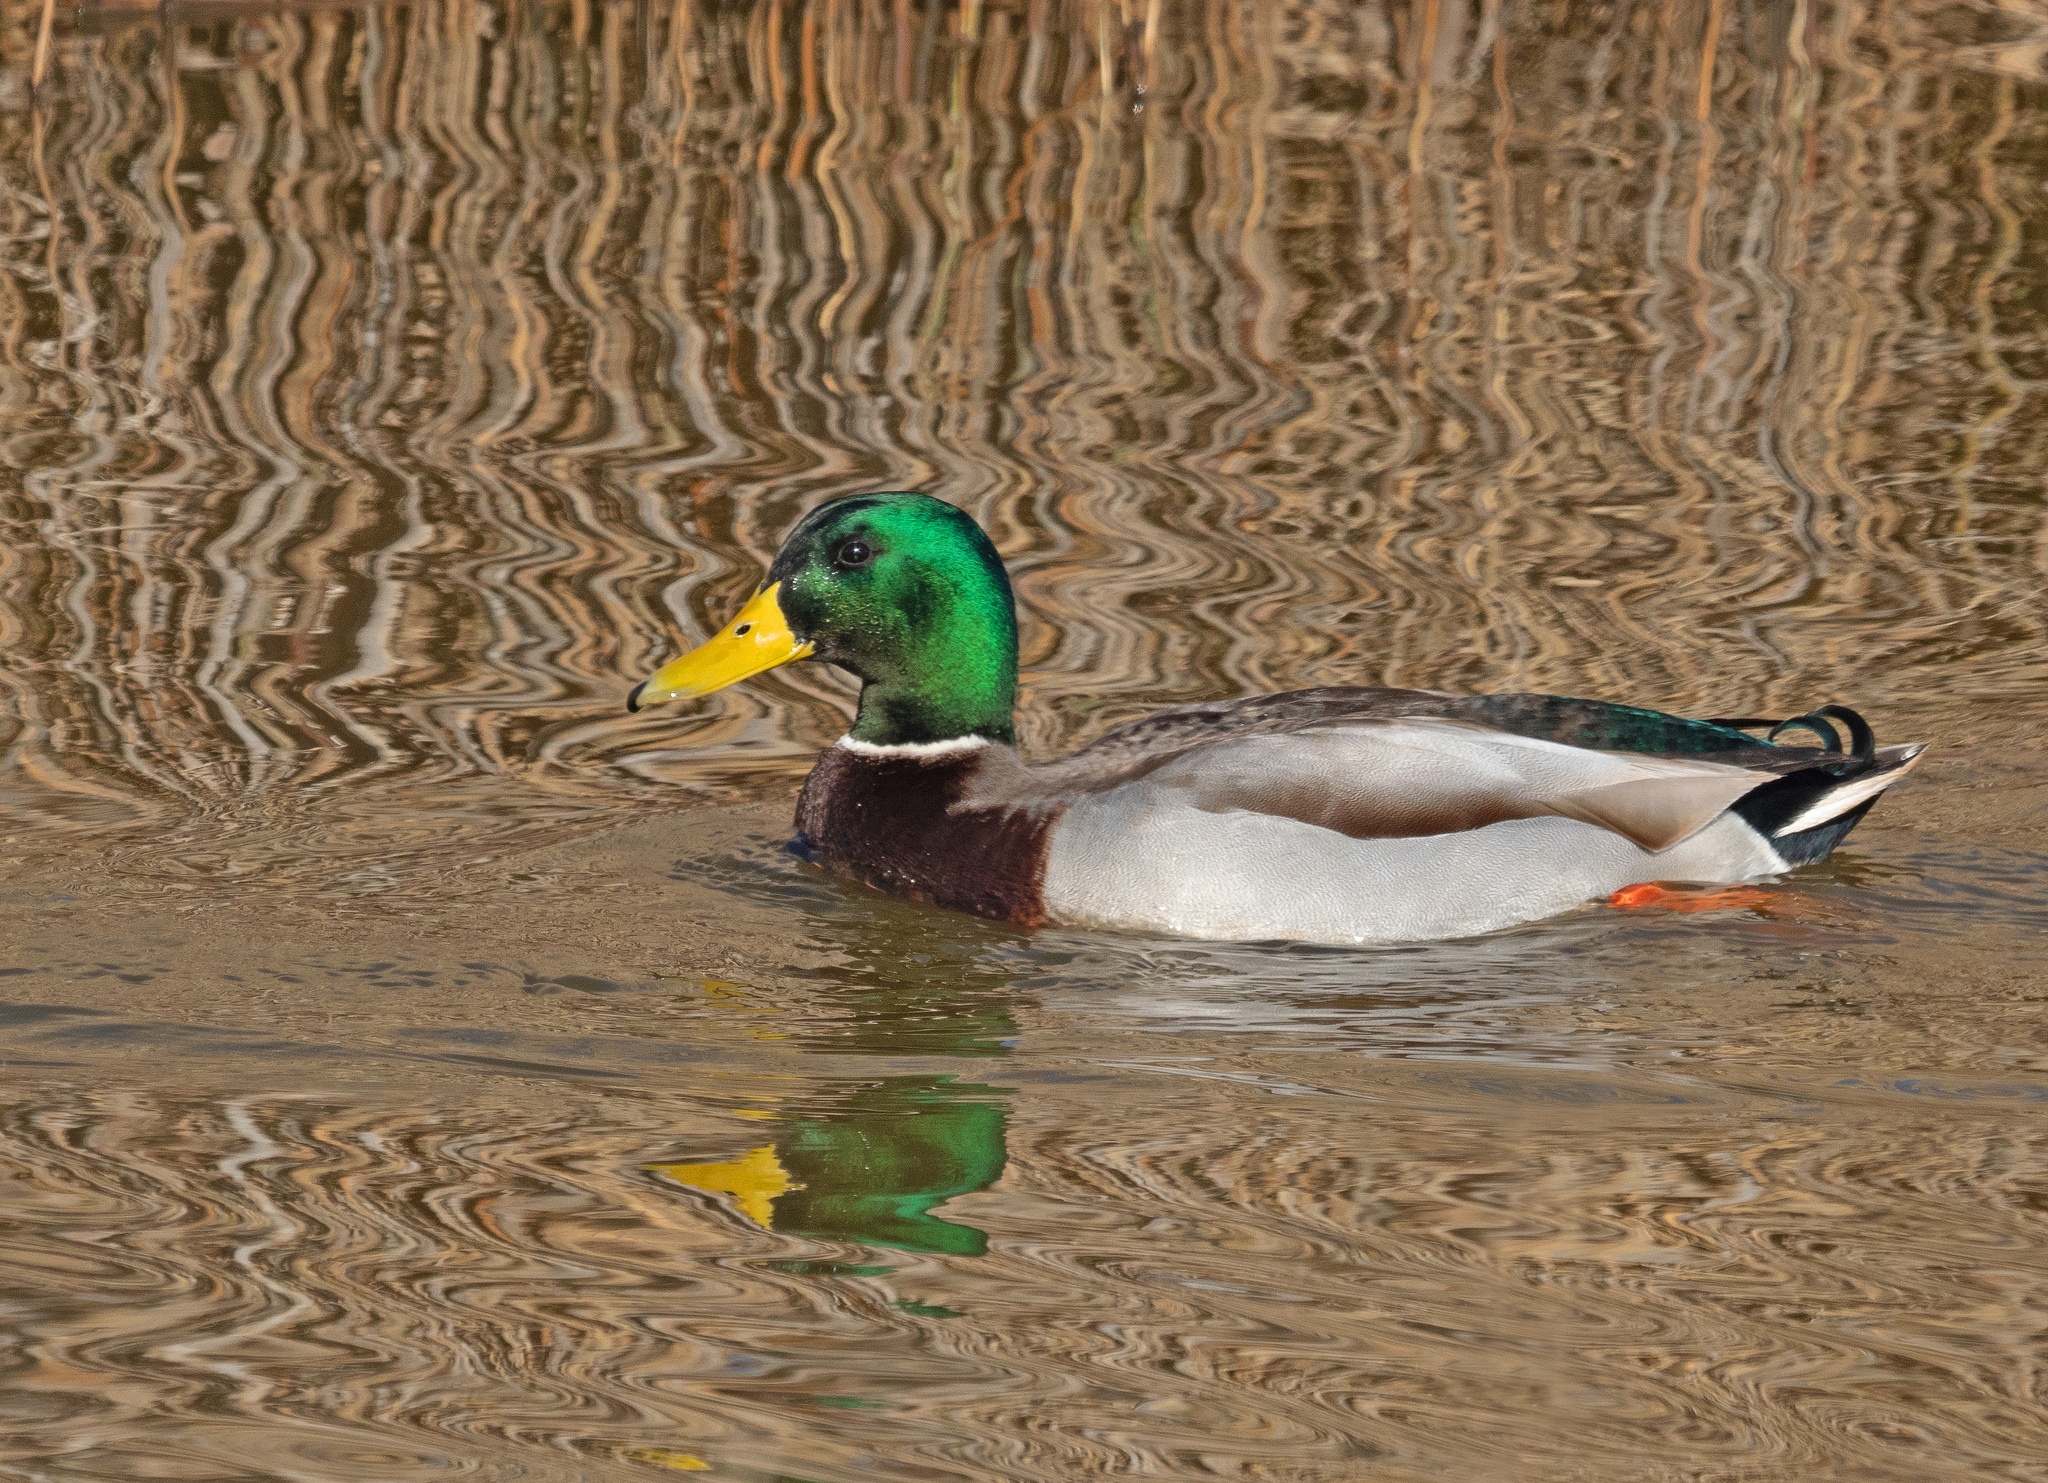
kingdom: Animalia
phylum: Chordata
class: Aves
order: Anseriformes
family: Anatidae
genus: Anas
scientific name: Anas platyrhynchos
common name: Mallard
